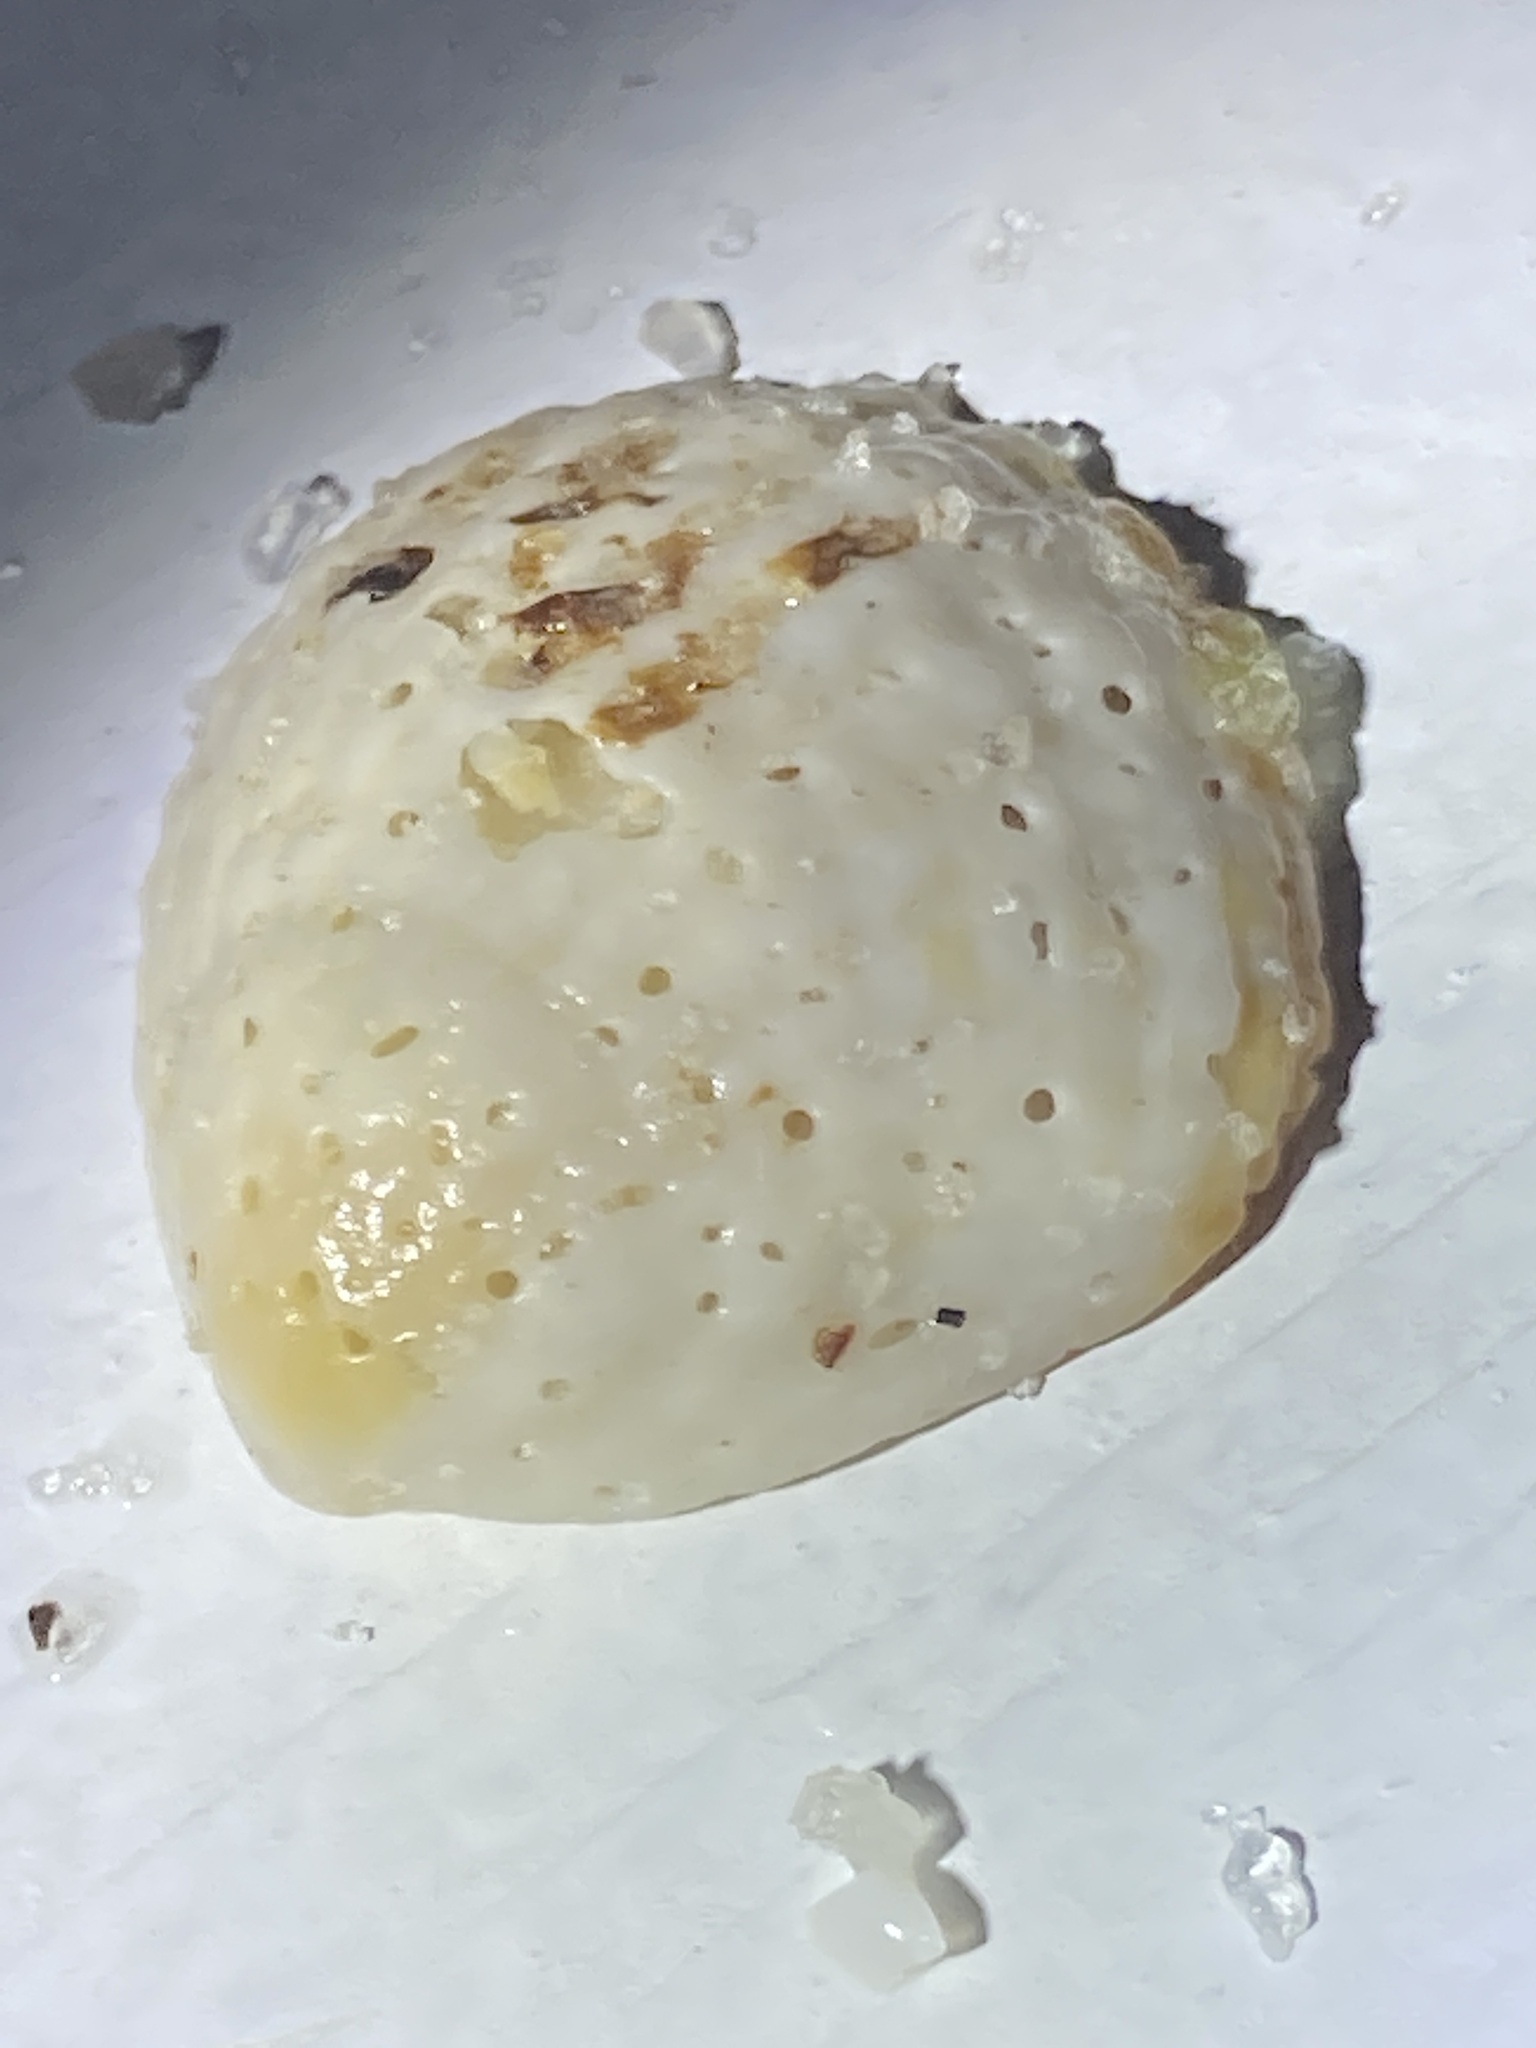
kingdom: Animalia
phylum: Mollusca
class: Bivalvia
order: Arcida
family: Glycymerididae
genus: Tucetona
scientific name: Tucetona pectinata
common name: Comb bittersweet
